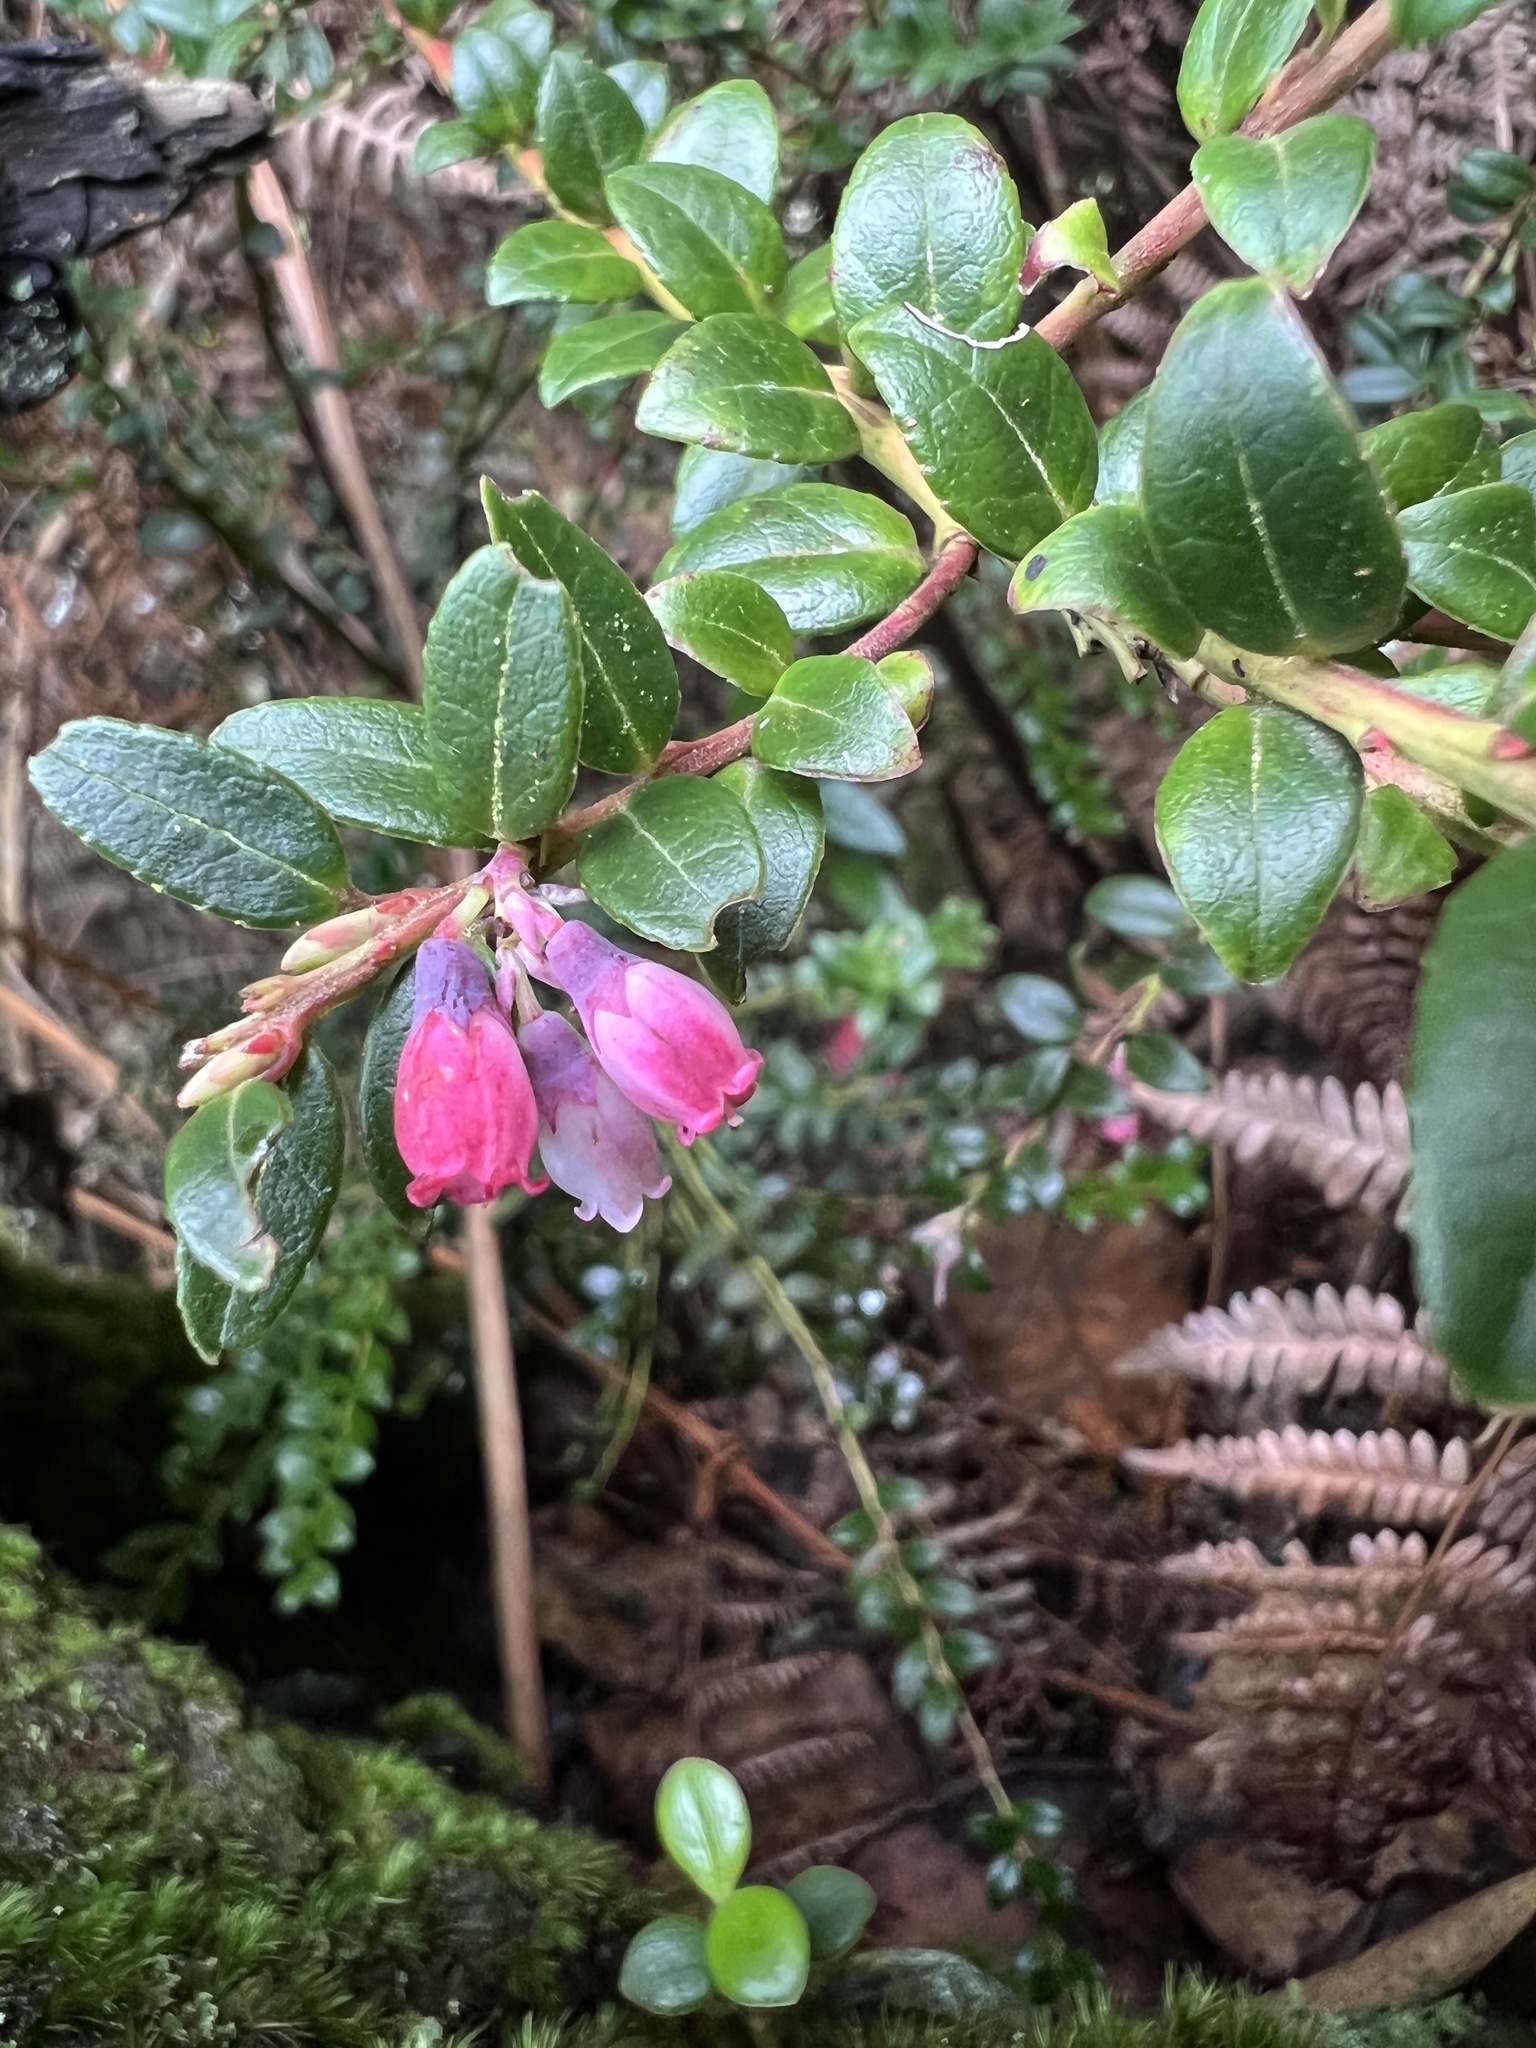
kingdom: Plantae
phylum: Tracheophyta
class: Magnoliopsida
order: Ericales
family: Ericaceae
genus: Vaccinium
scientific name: Vaccinium floribundum
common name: Colombian blueberry
